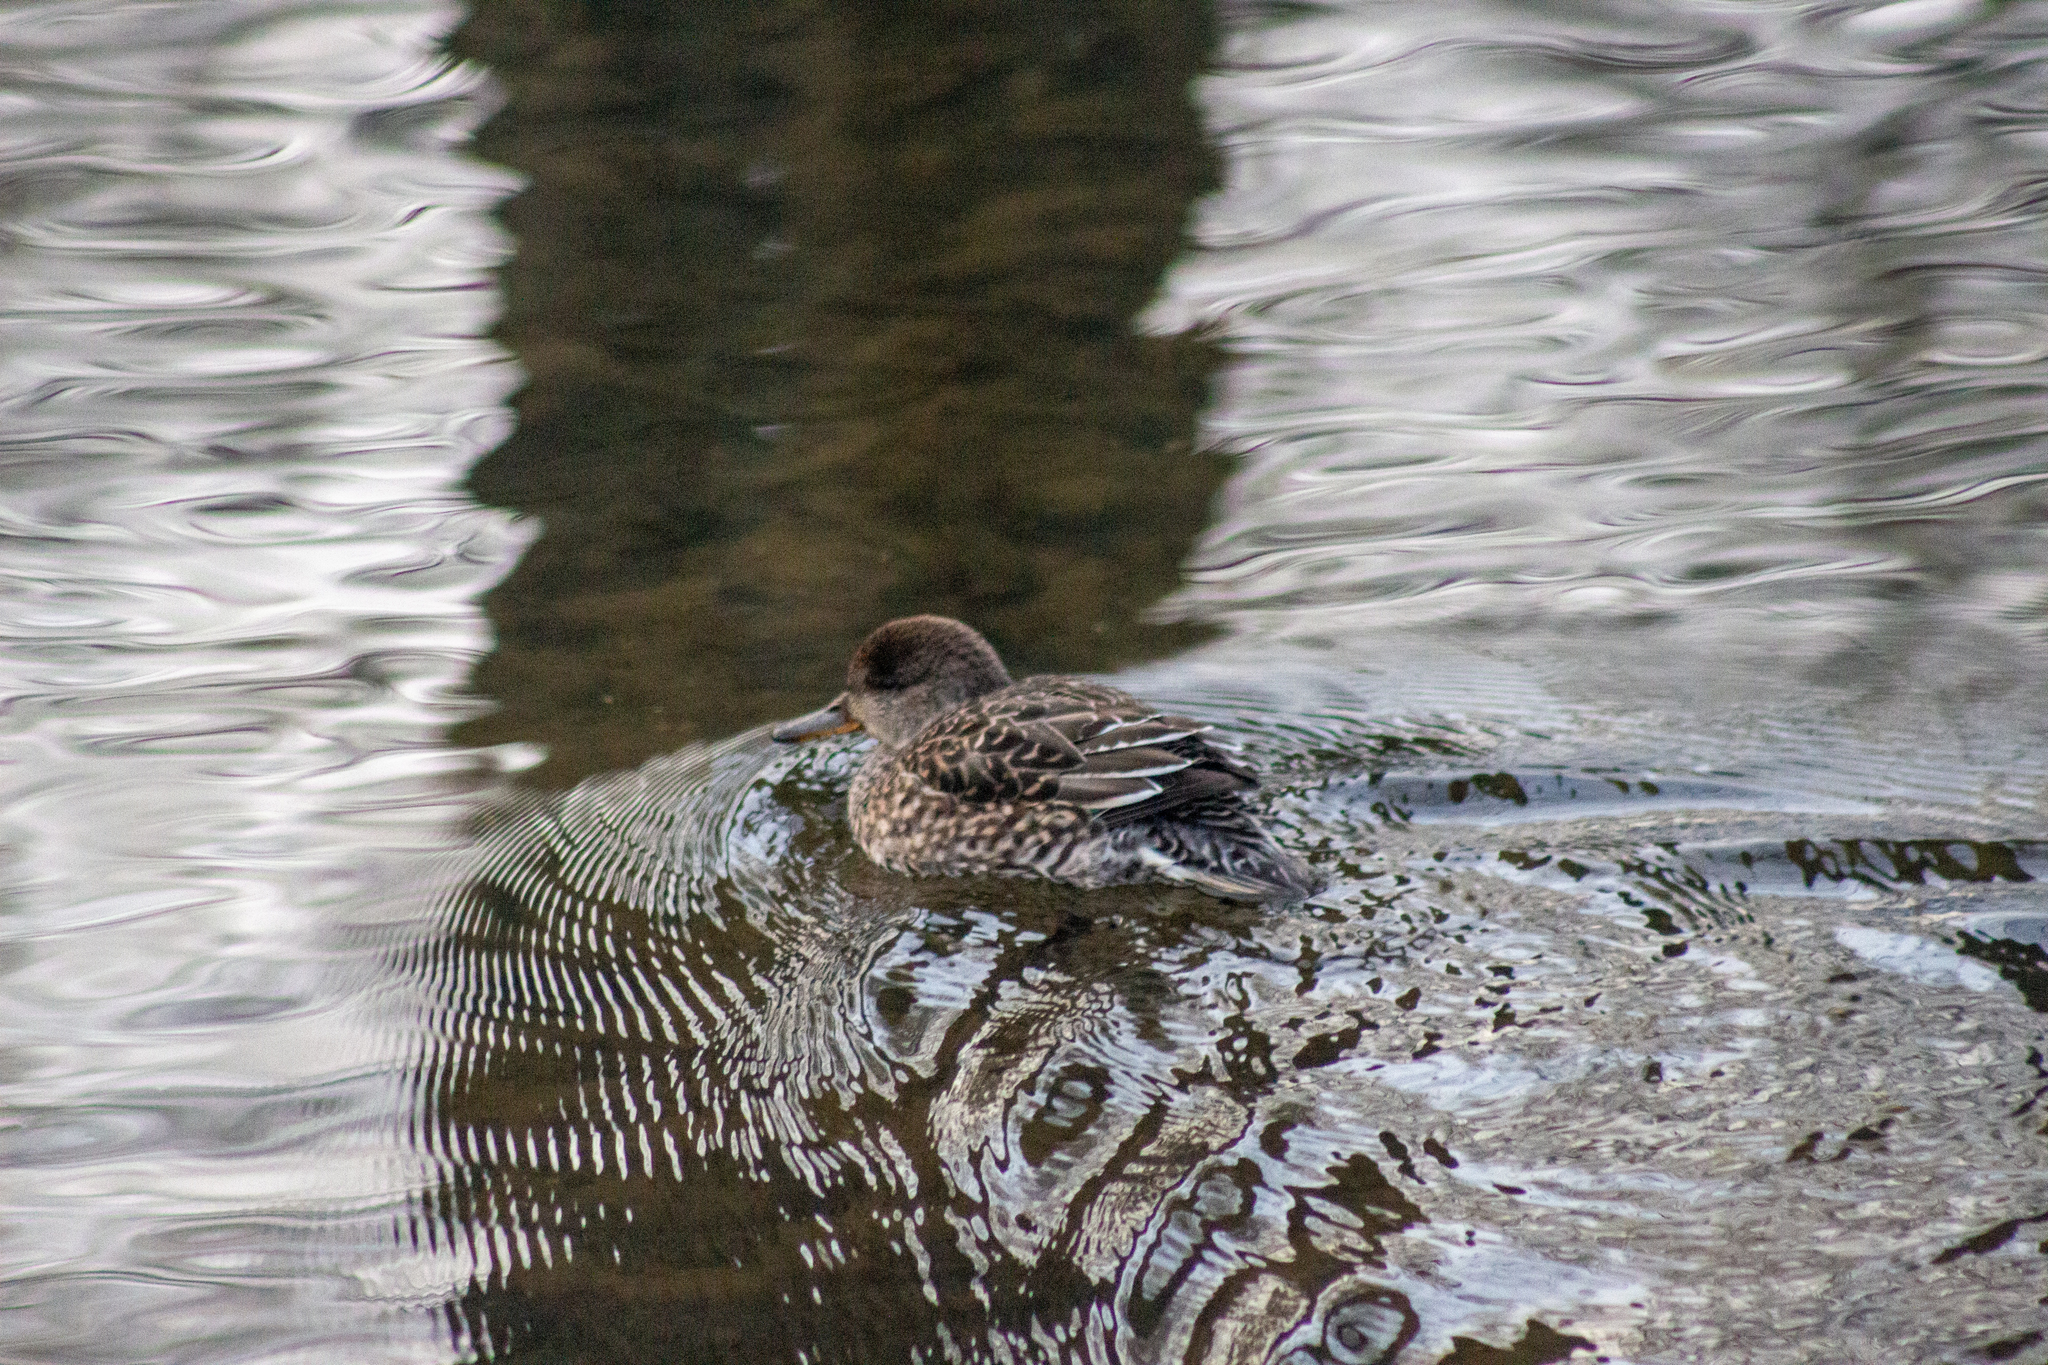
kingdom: Animalia
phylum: Chordata
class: Aves
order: Anseriformes
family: Anatidae
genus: Anas
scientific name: Anas crecca
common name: Eurasian teal
